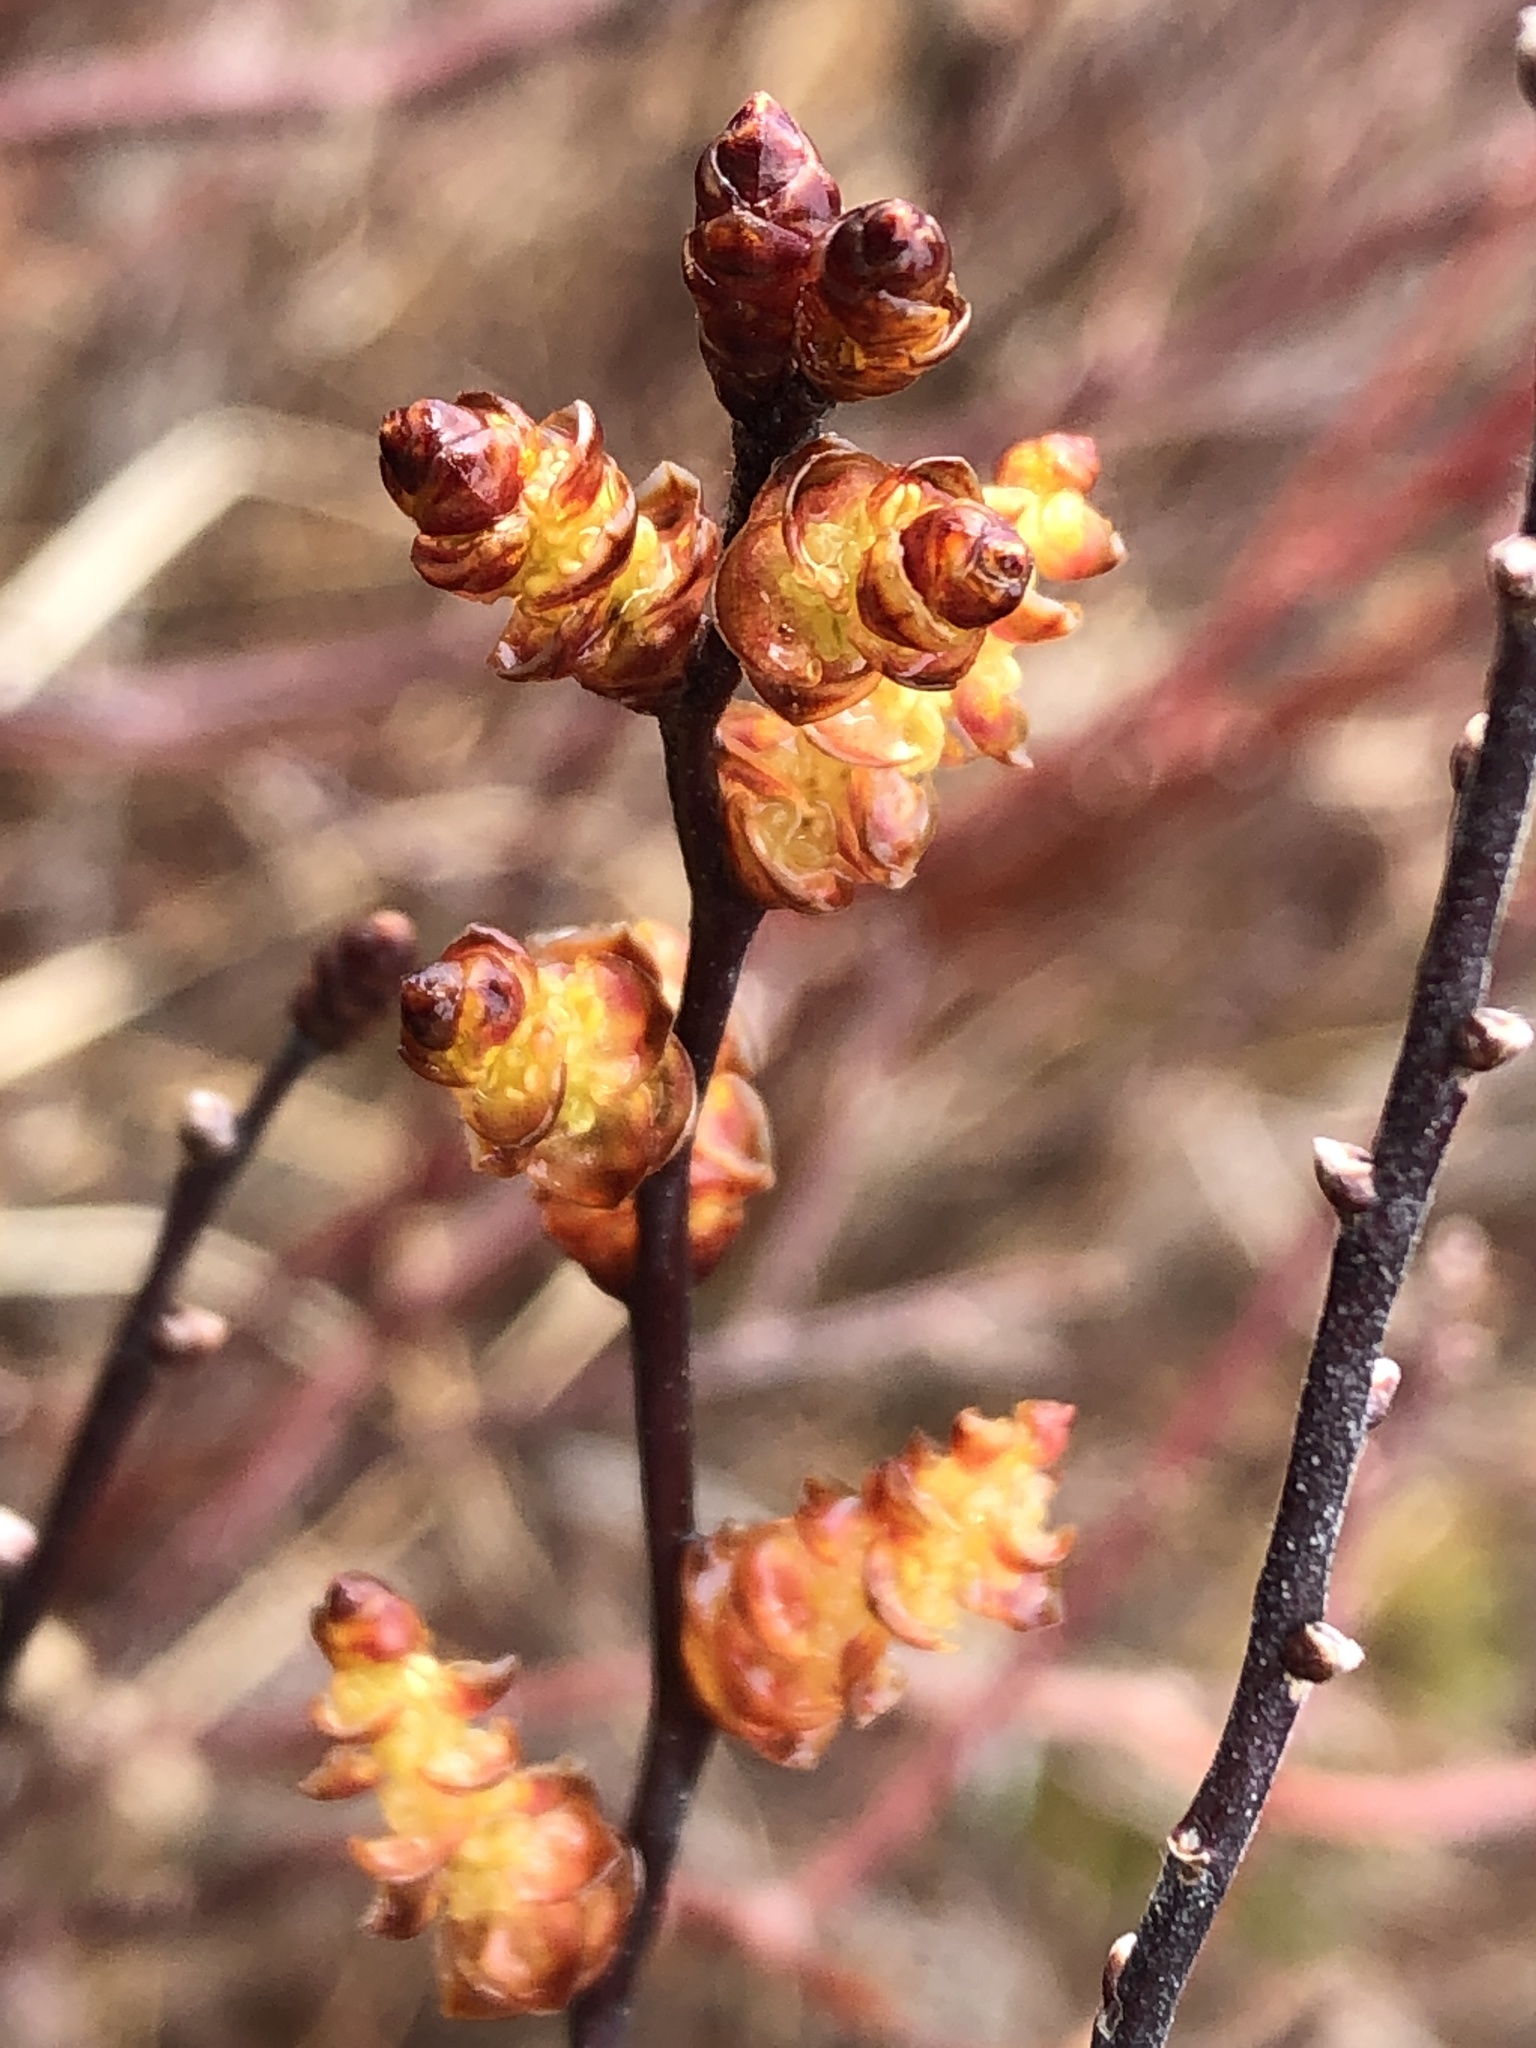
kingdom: Plantae
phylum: Tracheophyta
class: Magnoliopsida
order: Fagales
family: Myricaceae
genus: Myrica
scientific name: Myrica gale
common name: Sweet gale
